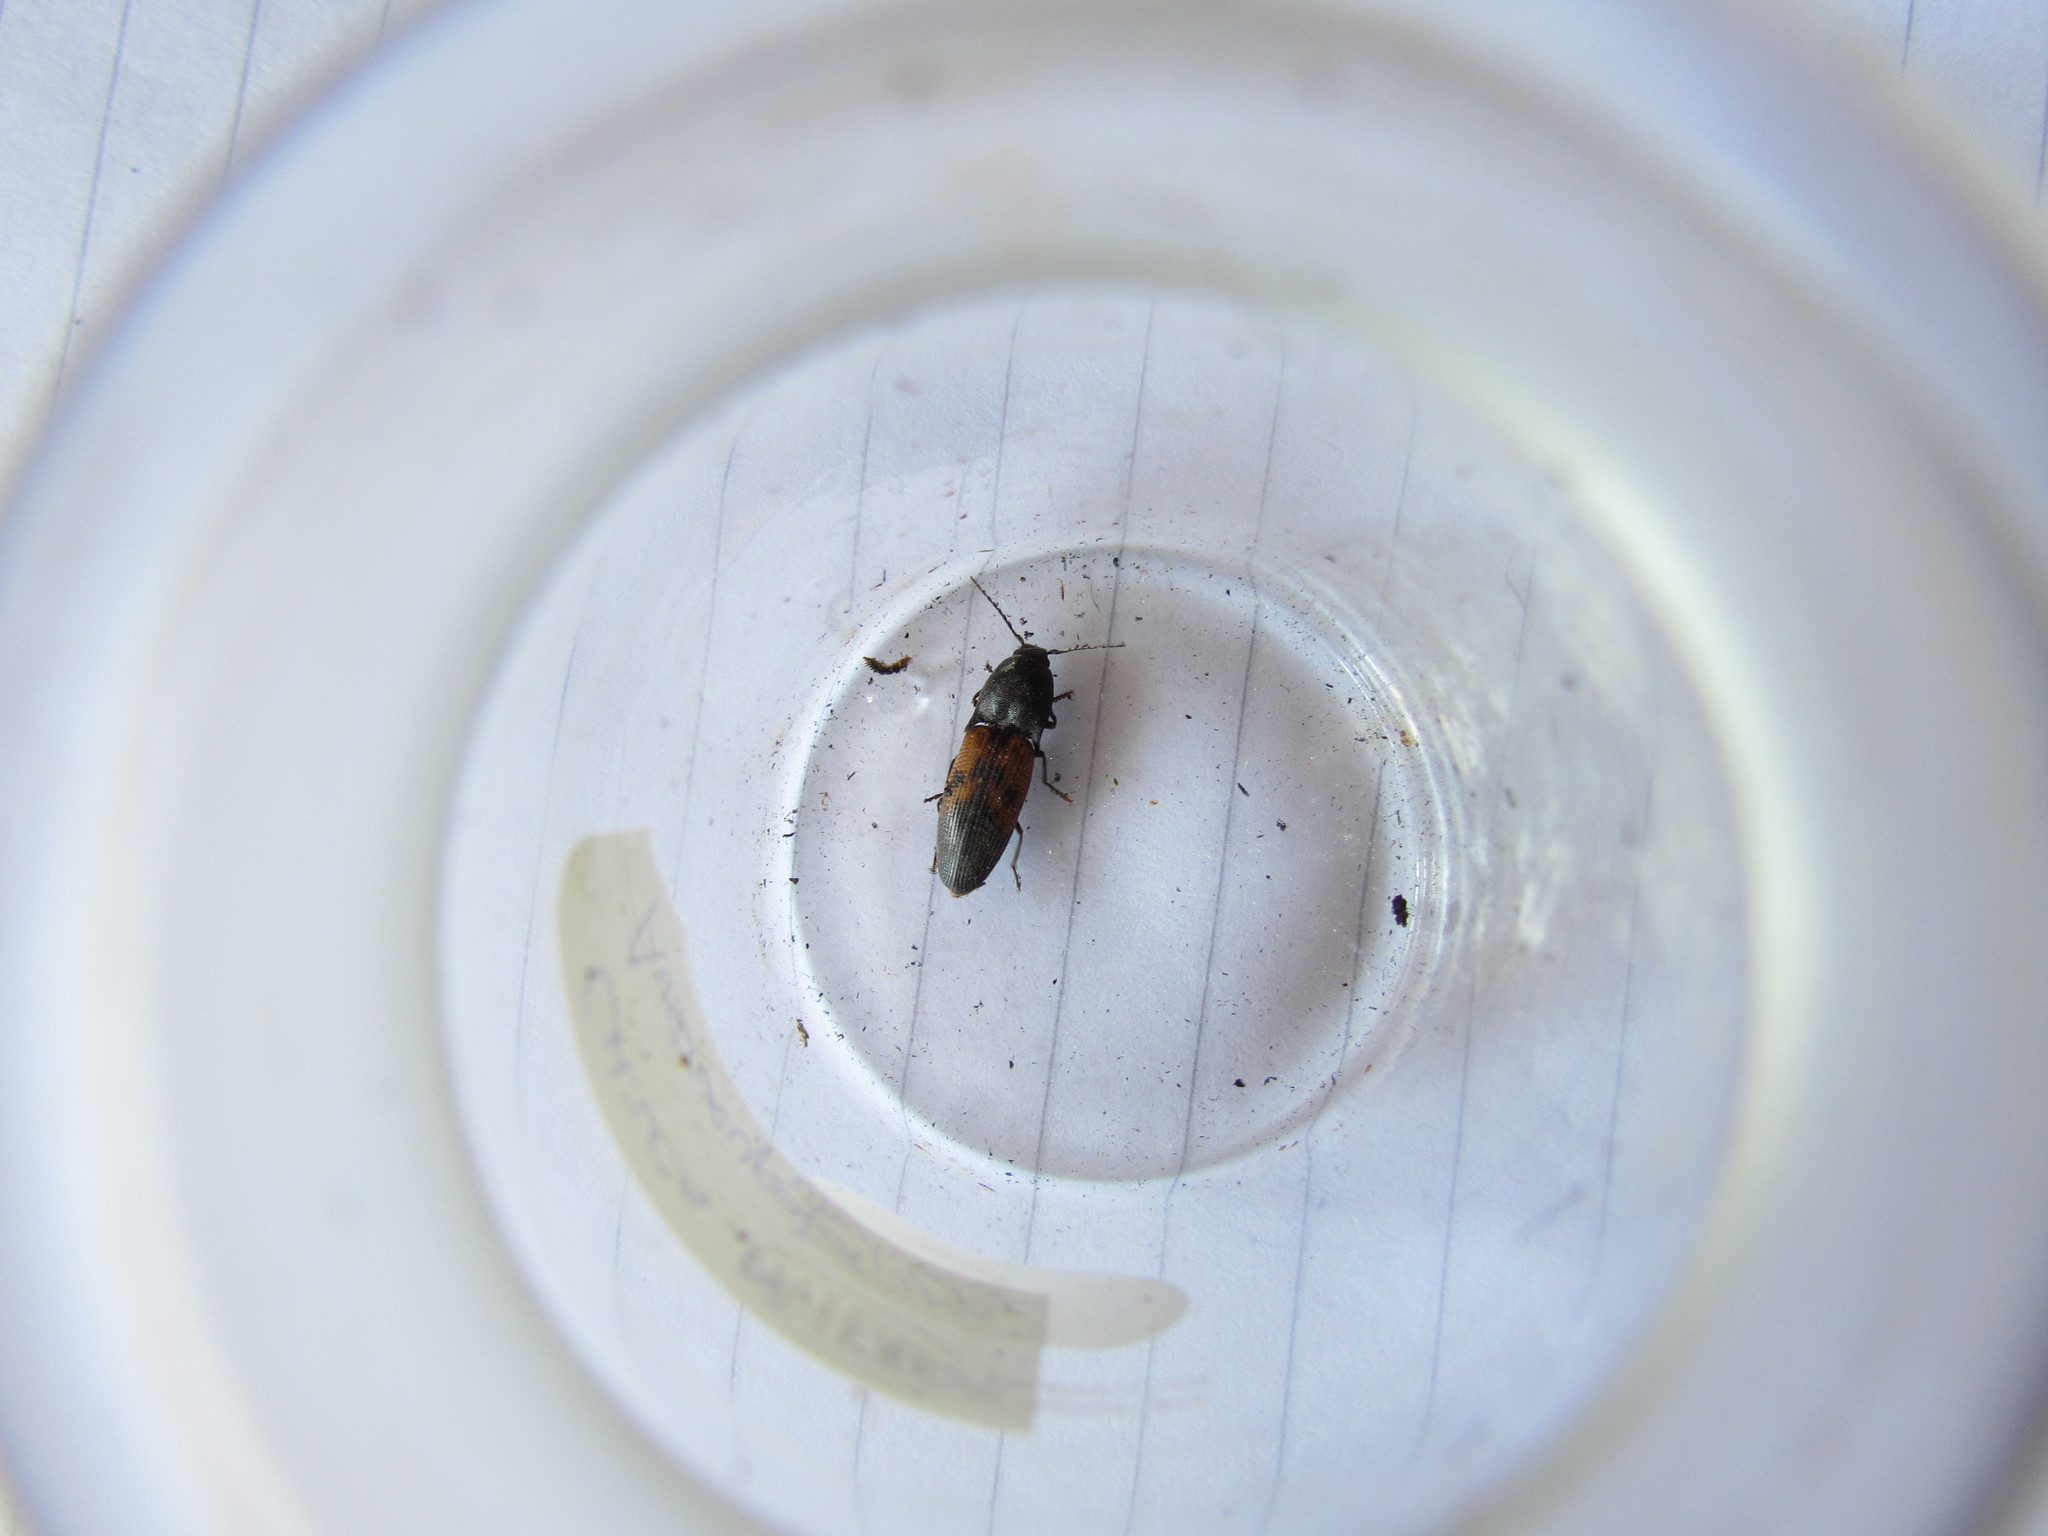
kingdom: Animalia
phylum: Arthropoda
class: Insecta
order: Coleoptera
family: Elateridae
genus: Monocrepidius
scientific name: Monocrepidius
